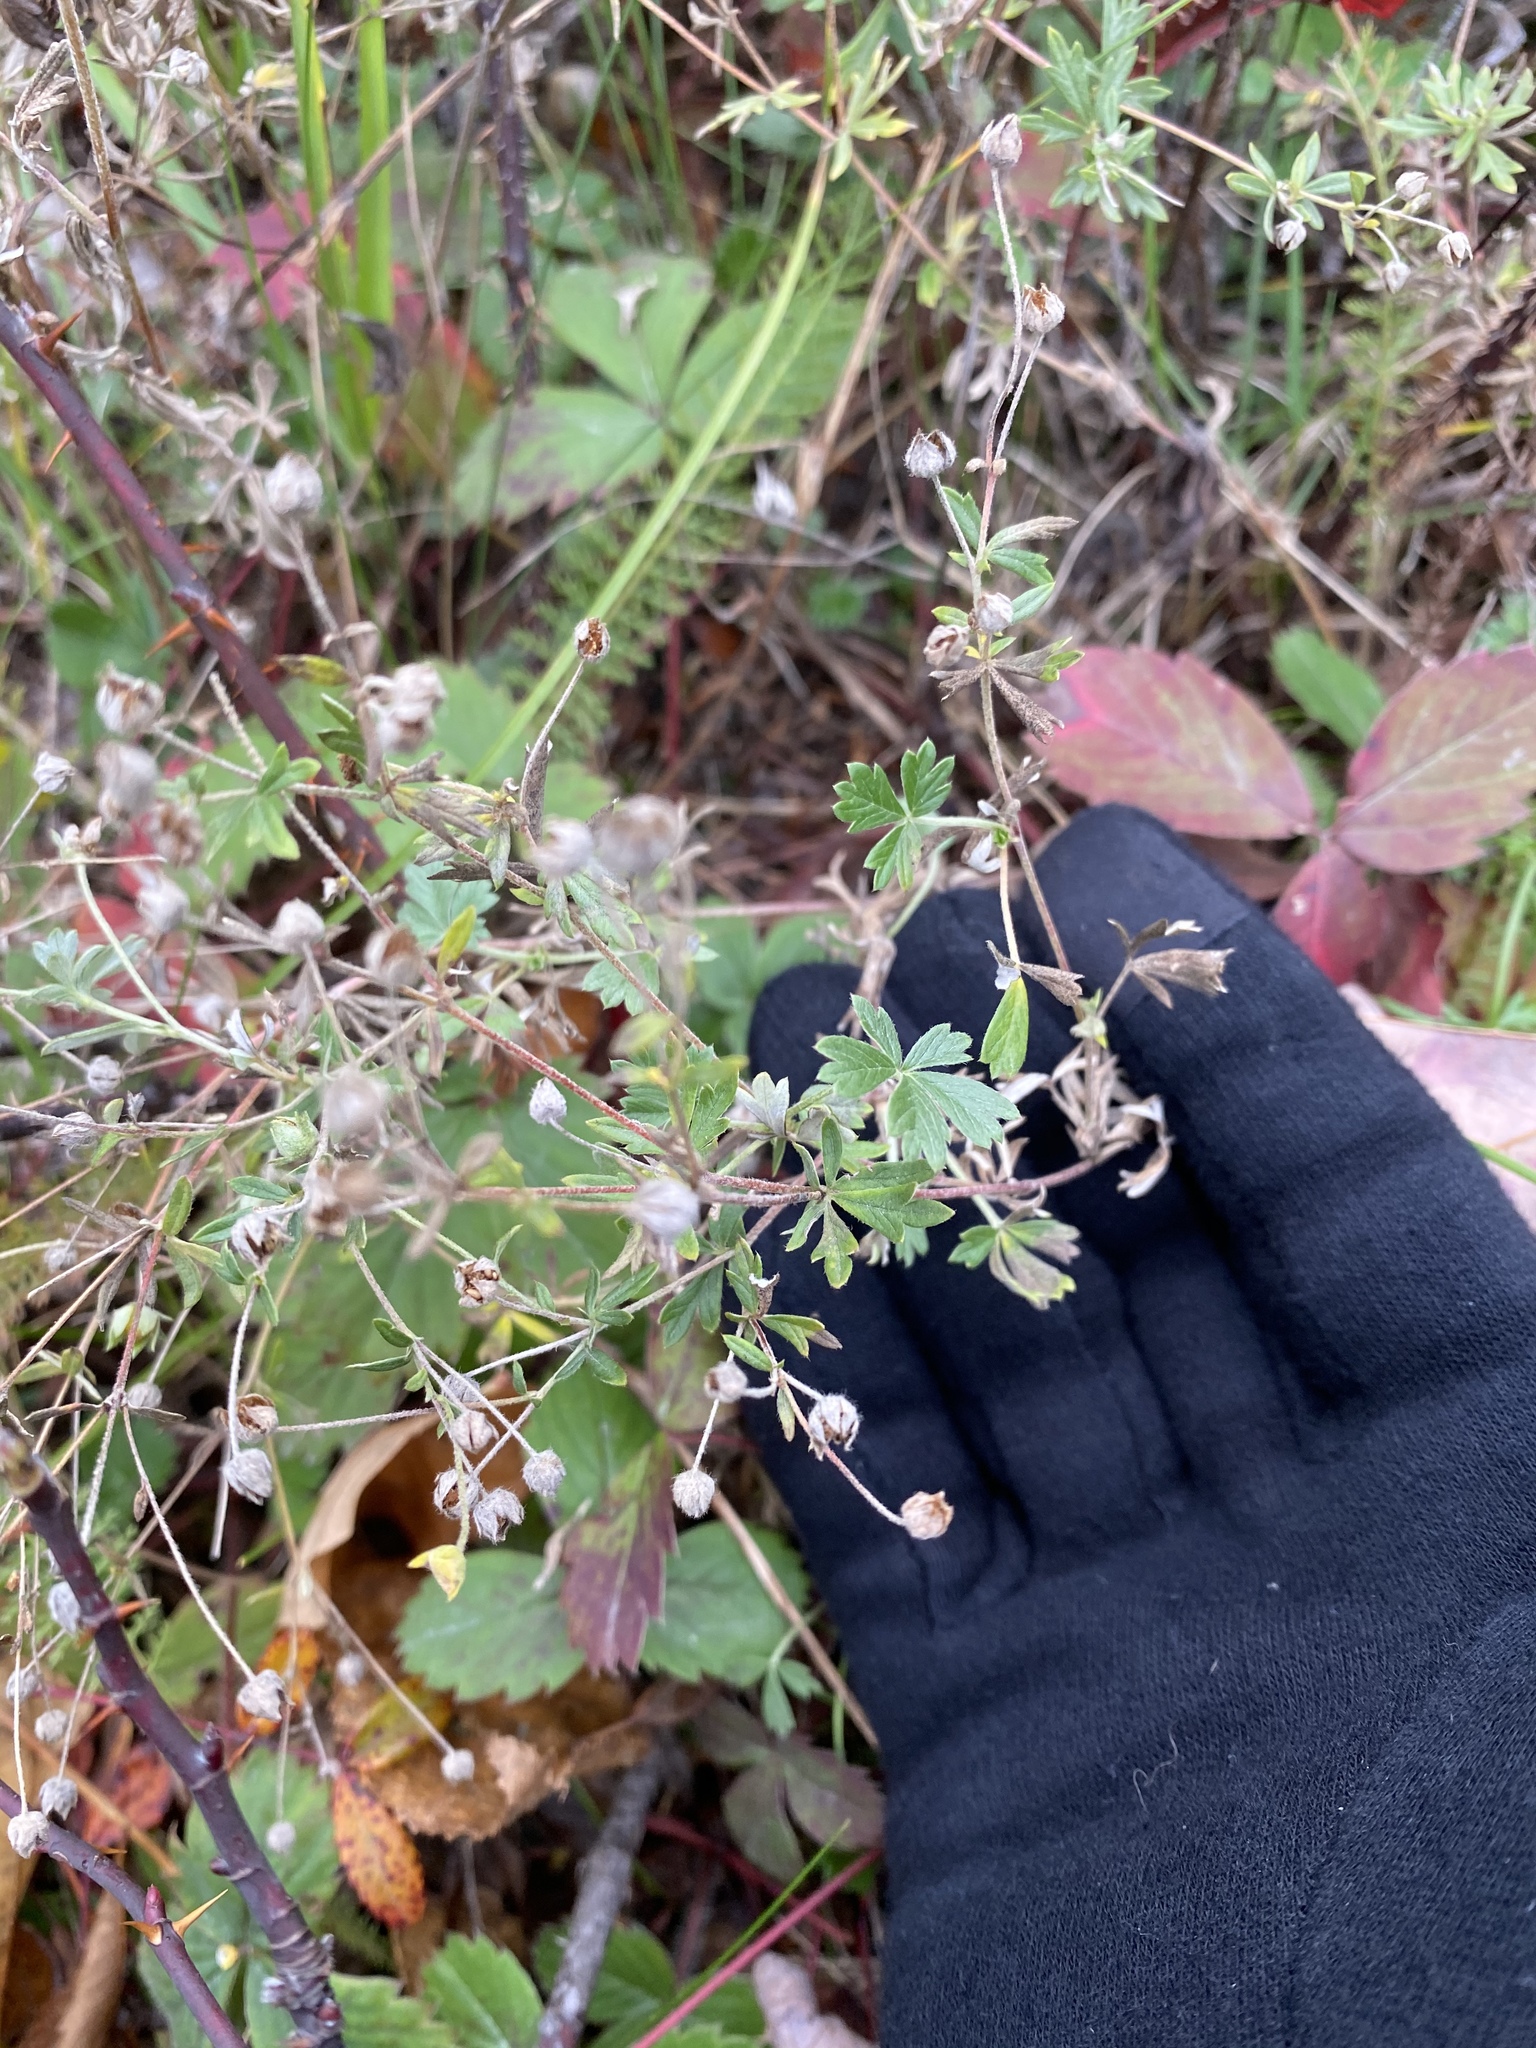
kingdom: Plantae
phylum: Tracheophyta
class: Magnoliopsida
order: Rosales
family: Rosaceae
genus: Potentilla
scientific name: Potentilla argentea
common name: Hoary cinquefoil
